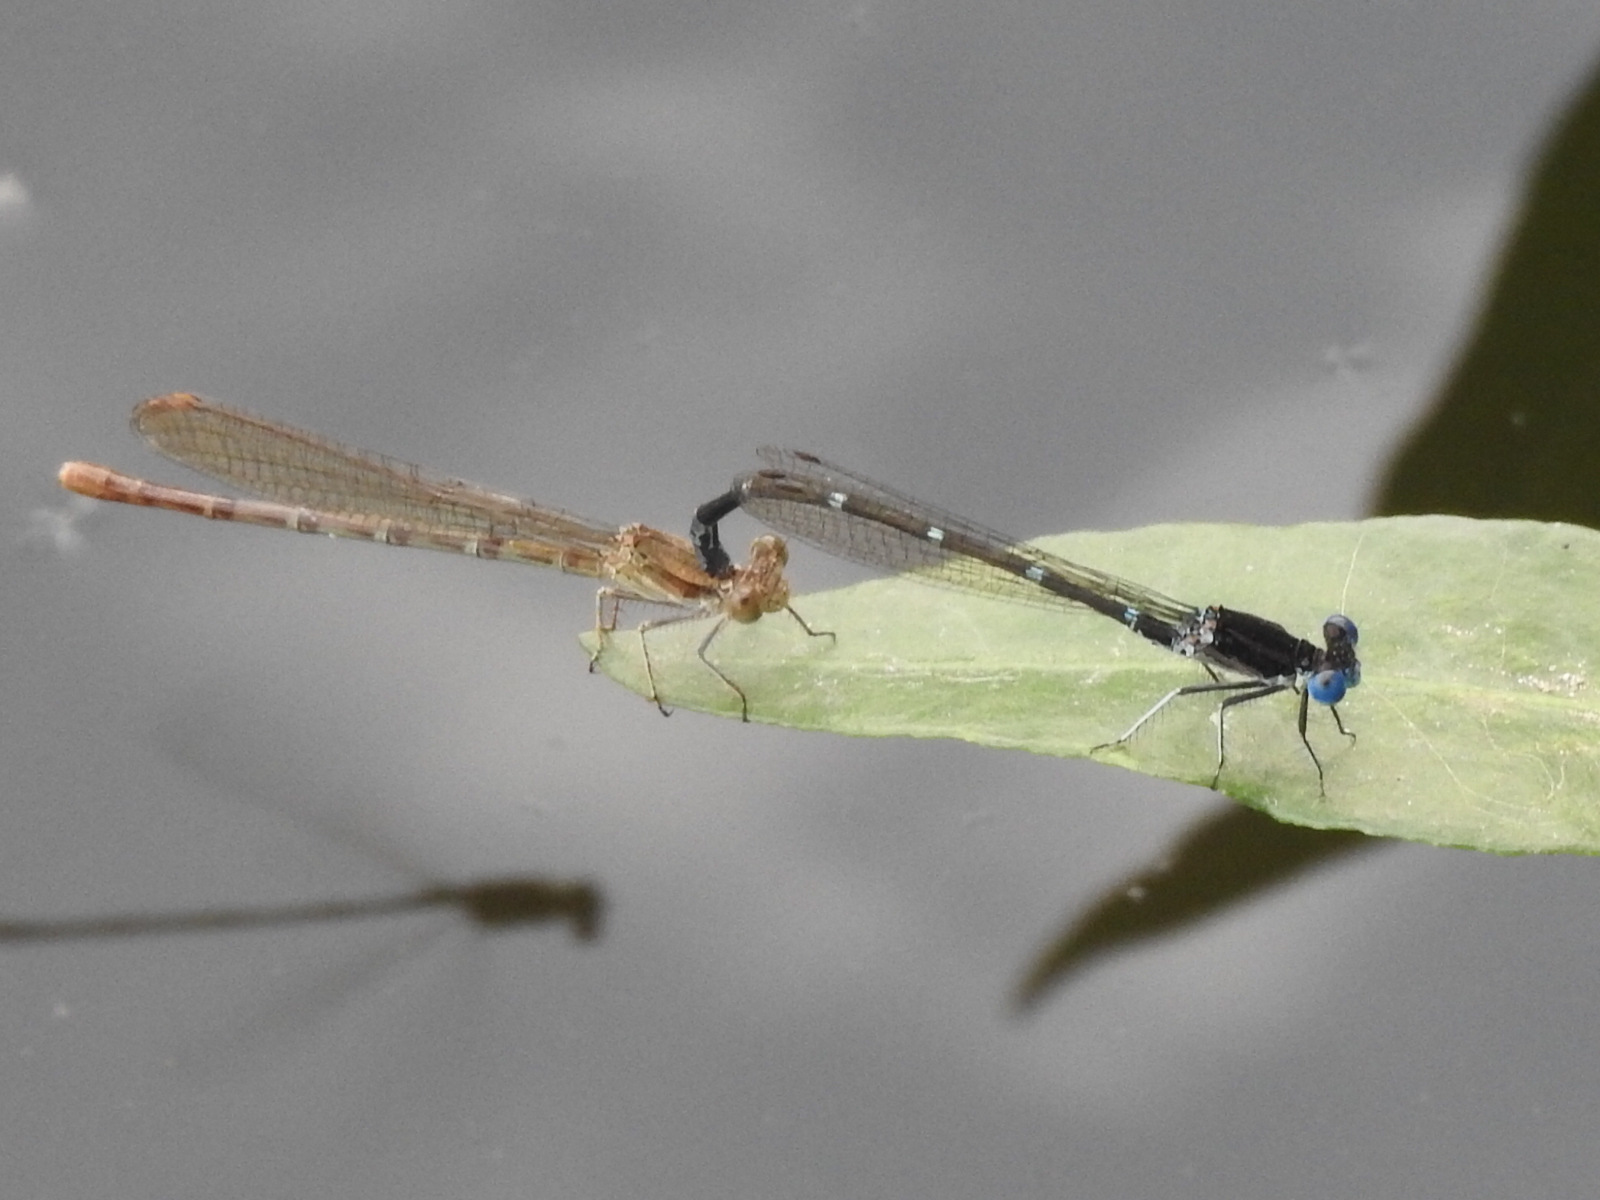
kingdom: Animalia
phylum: Arthropoda
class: Insecta
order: Odonata
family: Coenagrionidae
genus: Argia
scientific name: Argia sedula
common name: Blue-ringed dancer
